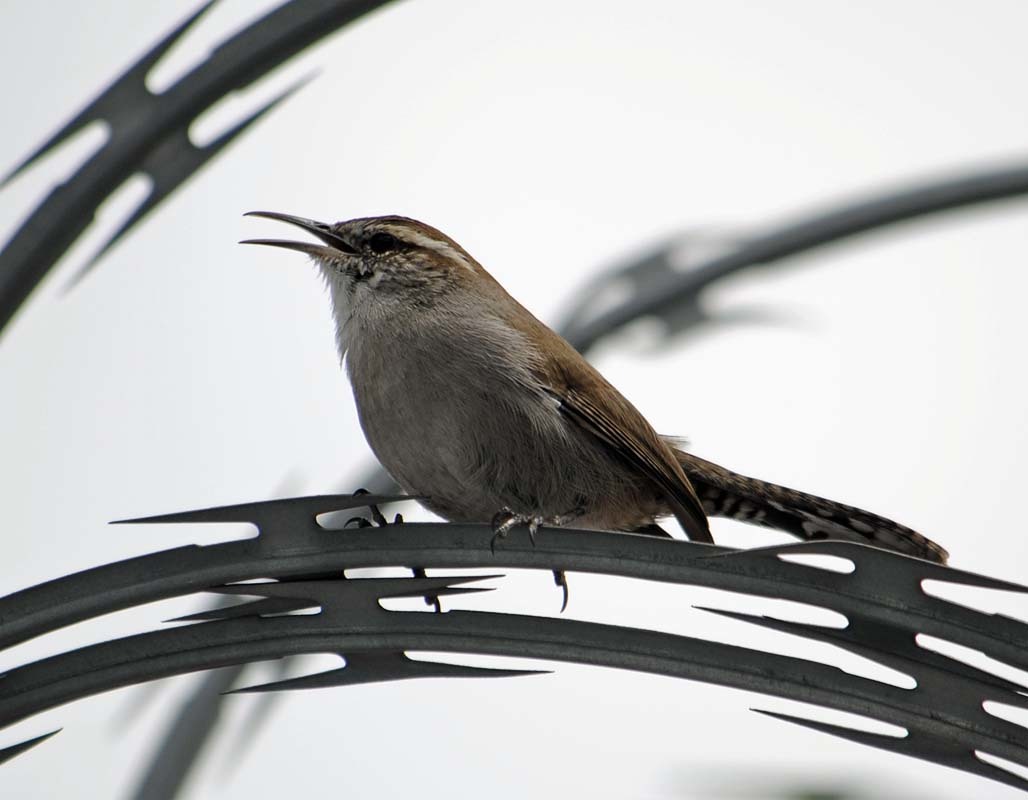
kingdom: Animalia
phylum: Chordata
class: Aves
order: Passeriformes
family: Troglodytidae
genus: Thryomanes
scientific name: Thryomanes bewickii
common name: Bewick's wren
